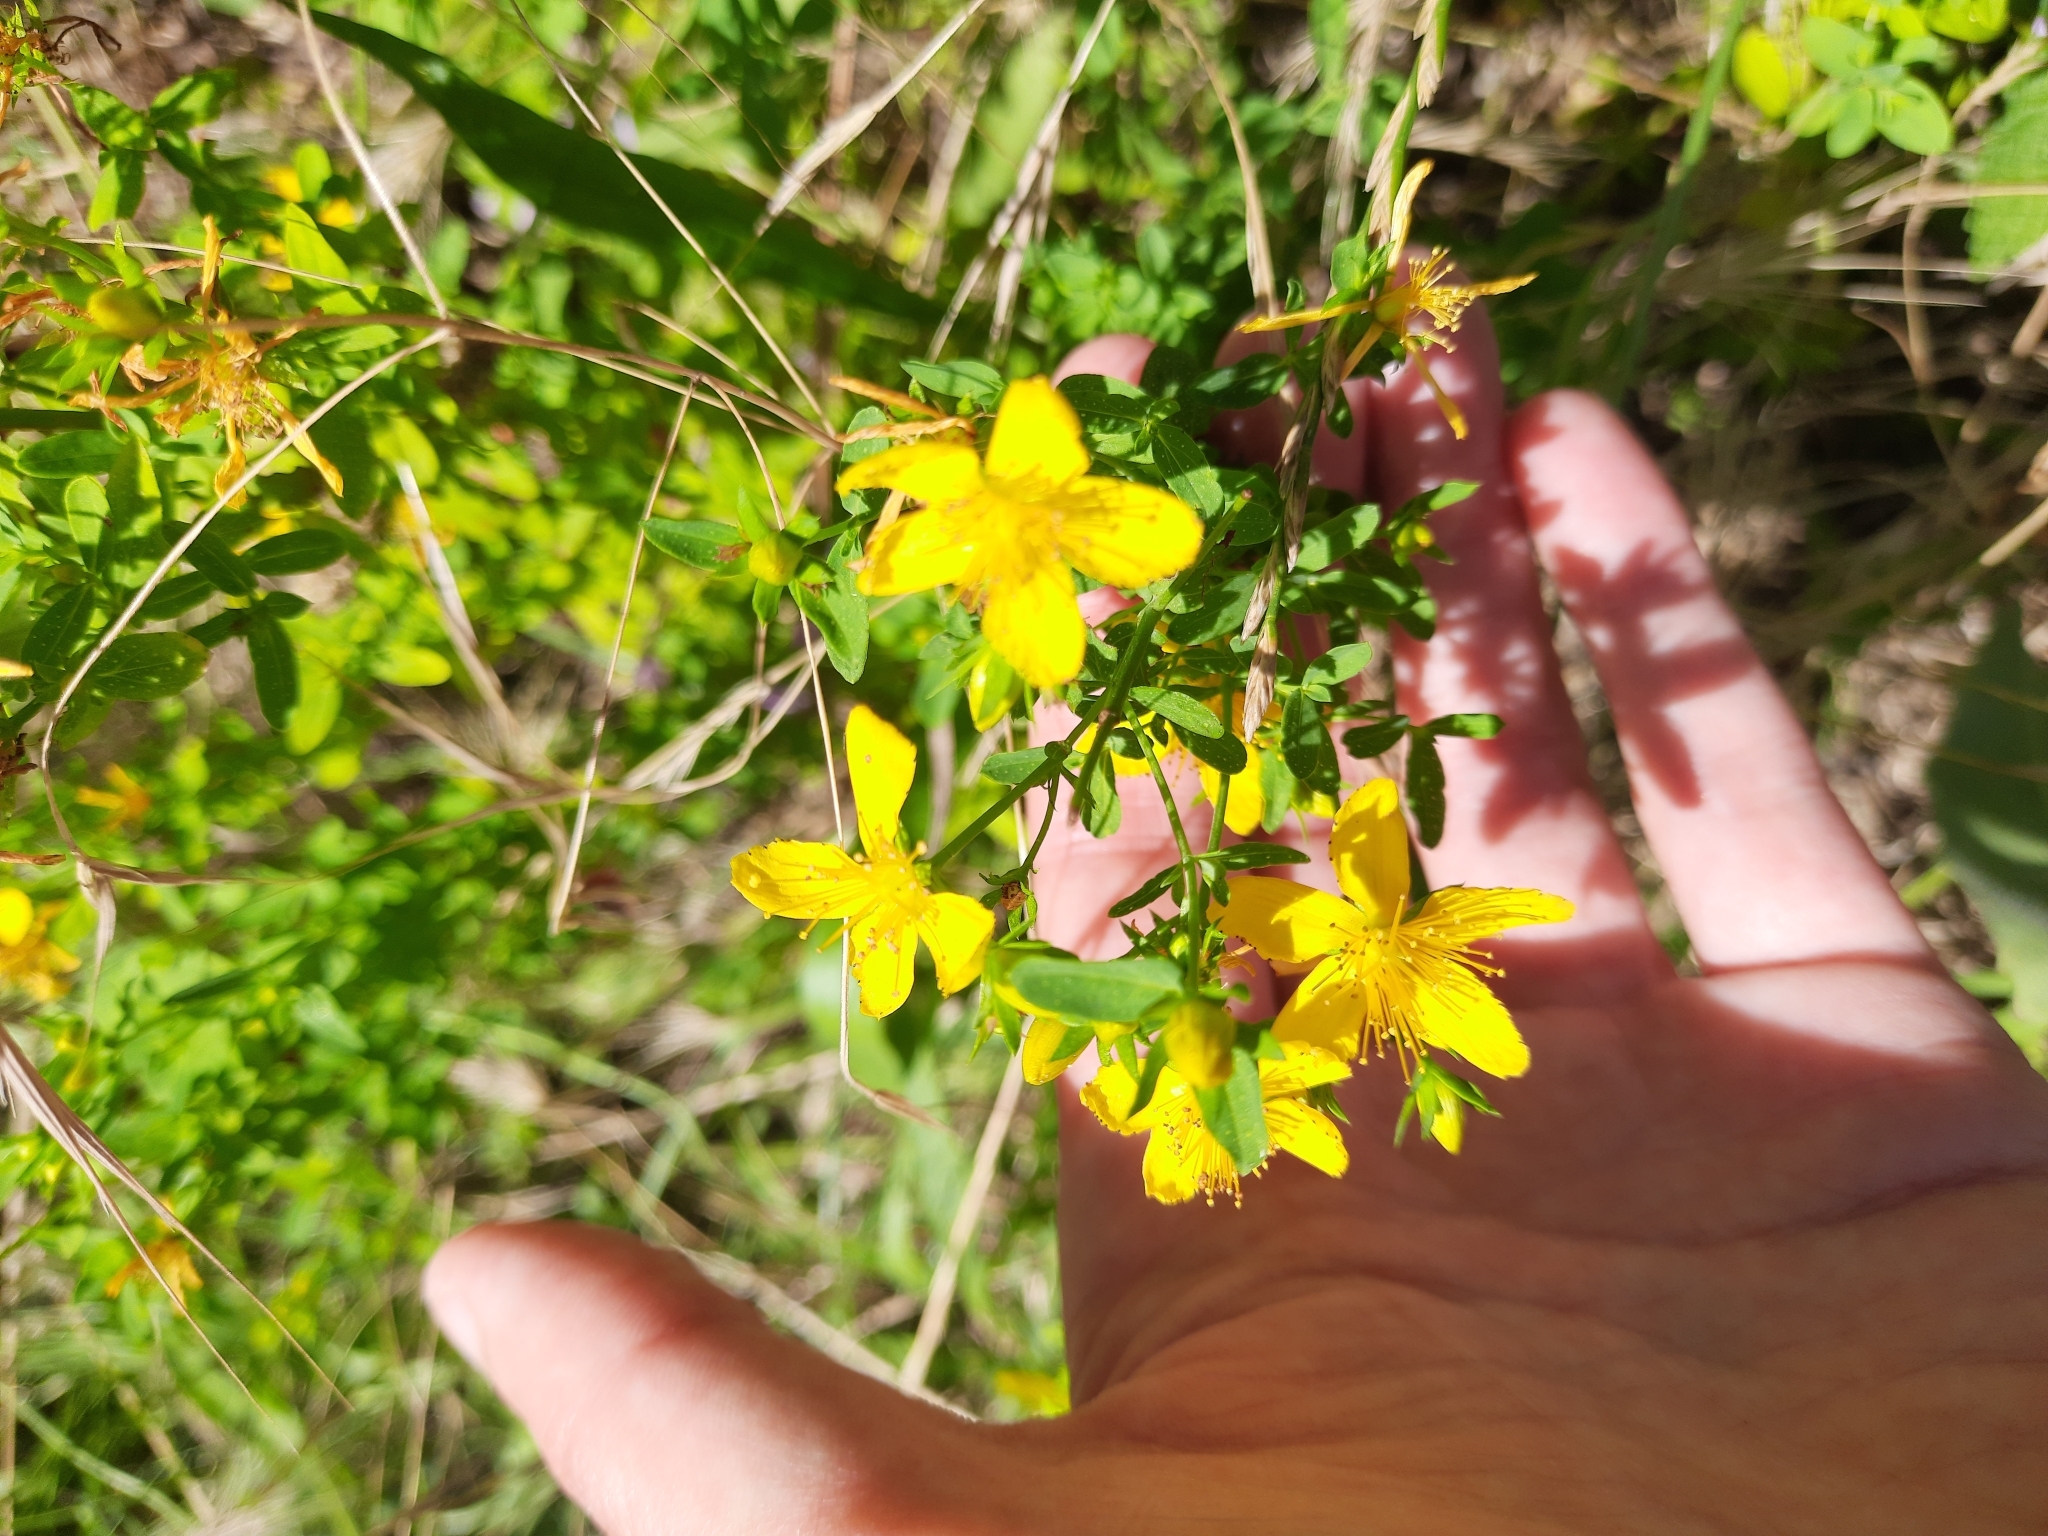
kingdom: Plantae
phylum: Tracheophyta
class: Magnoliopsida
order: Malpighiales
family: Hypericaceae
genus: Hypericum
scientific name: Hypericum perforatum
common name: Common st. johnswort
